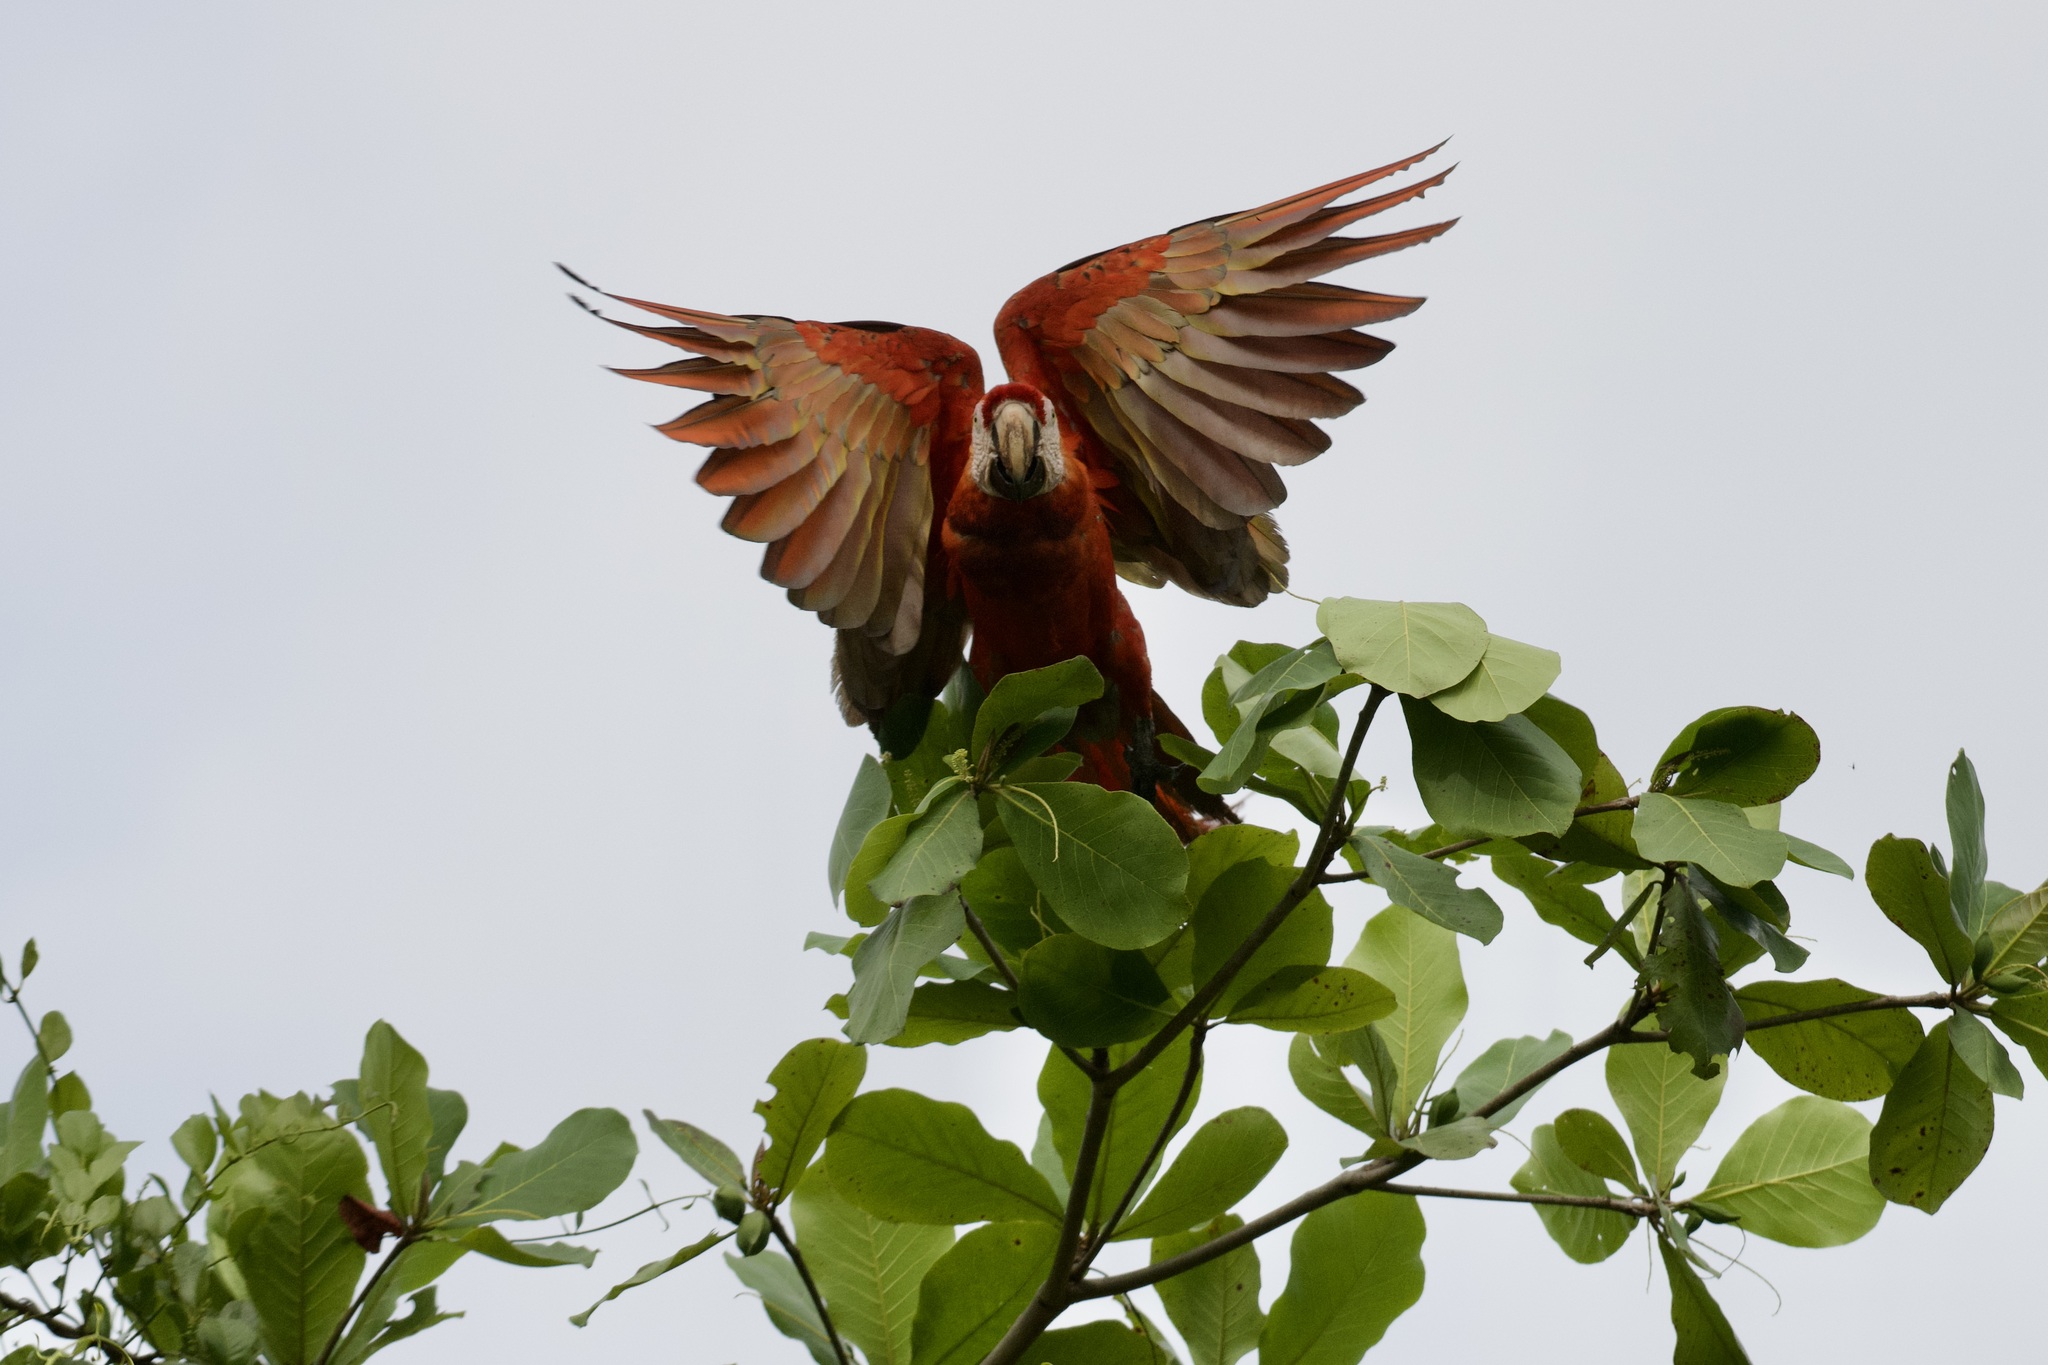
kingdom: Animalia
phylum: Chordata
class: Aves
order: Psittaciformes
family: Psittacidae
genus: Ara
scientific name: Ara macao
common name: Scarlet macaw
